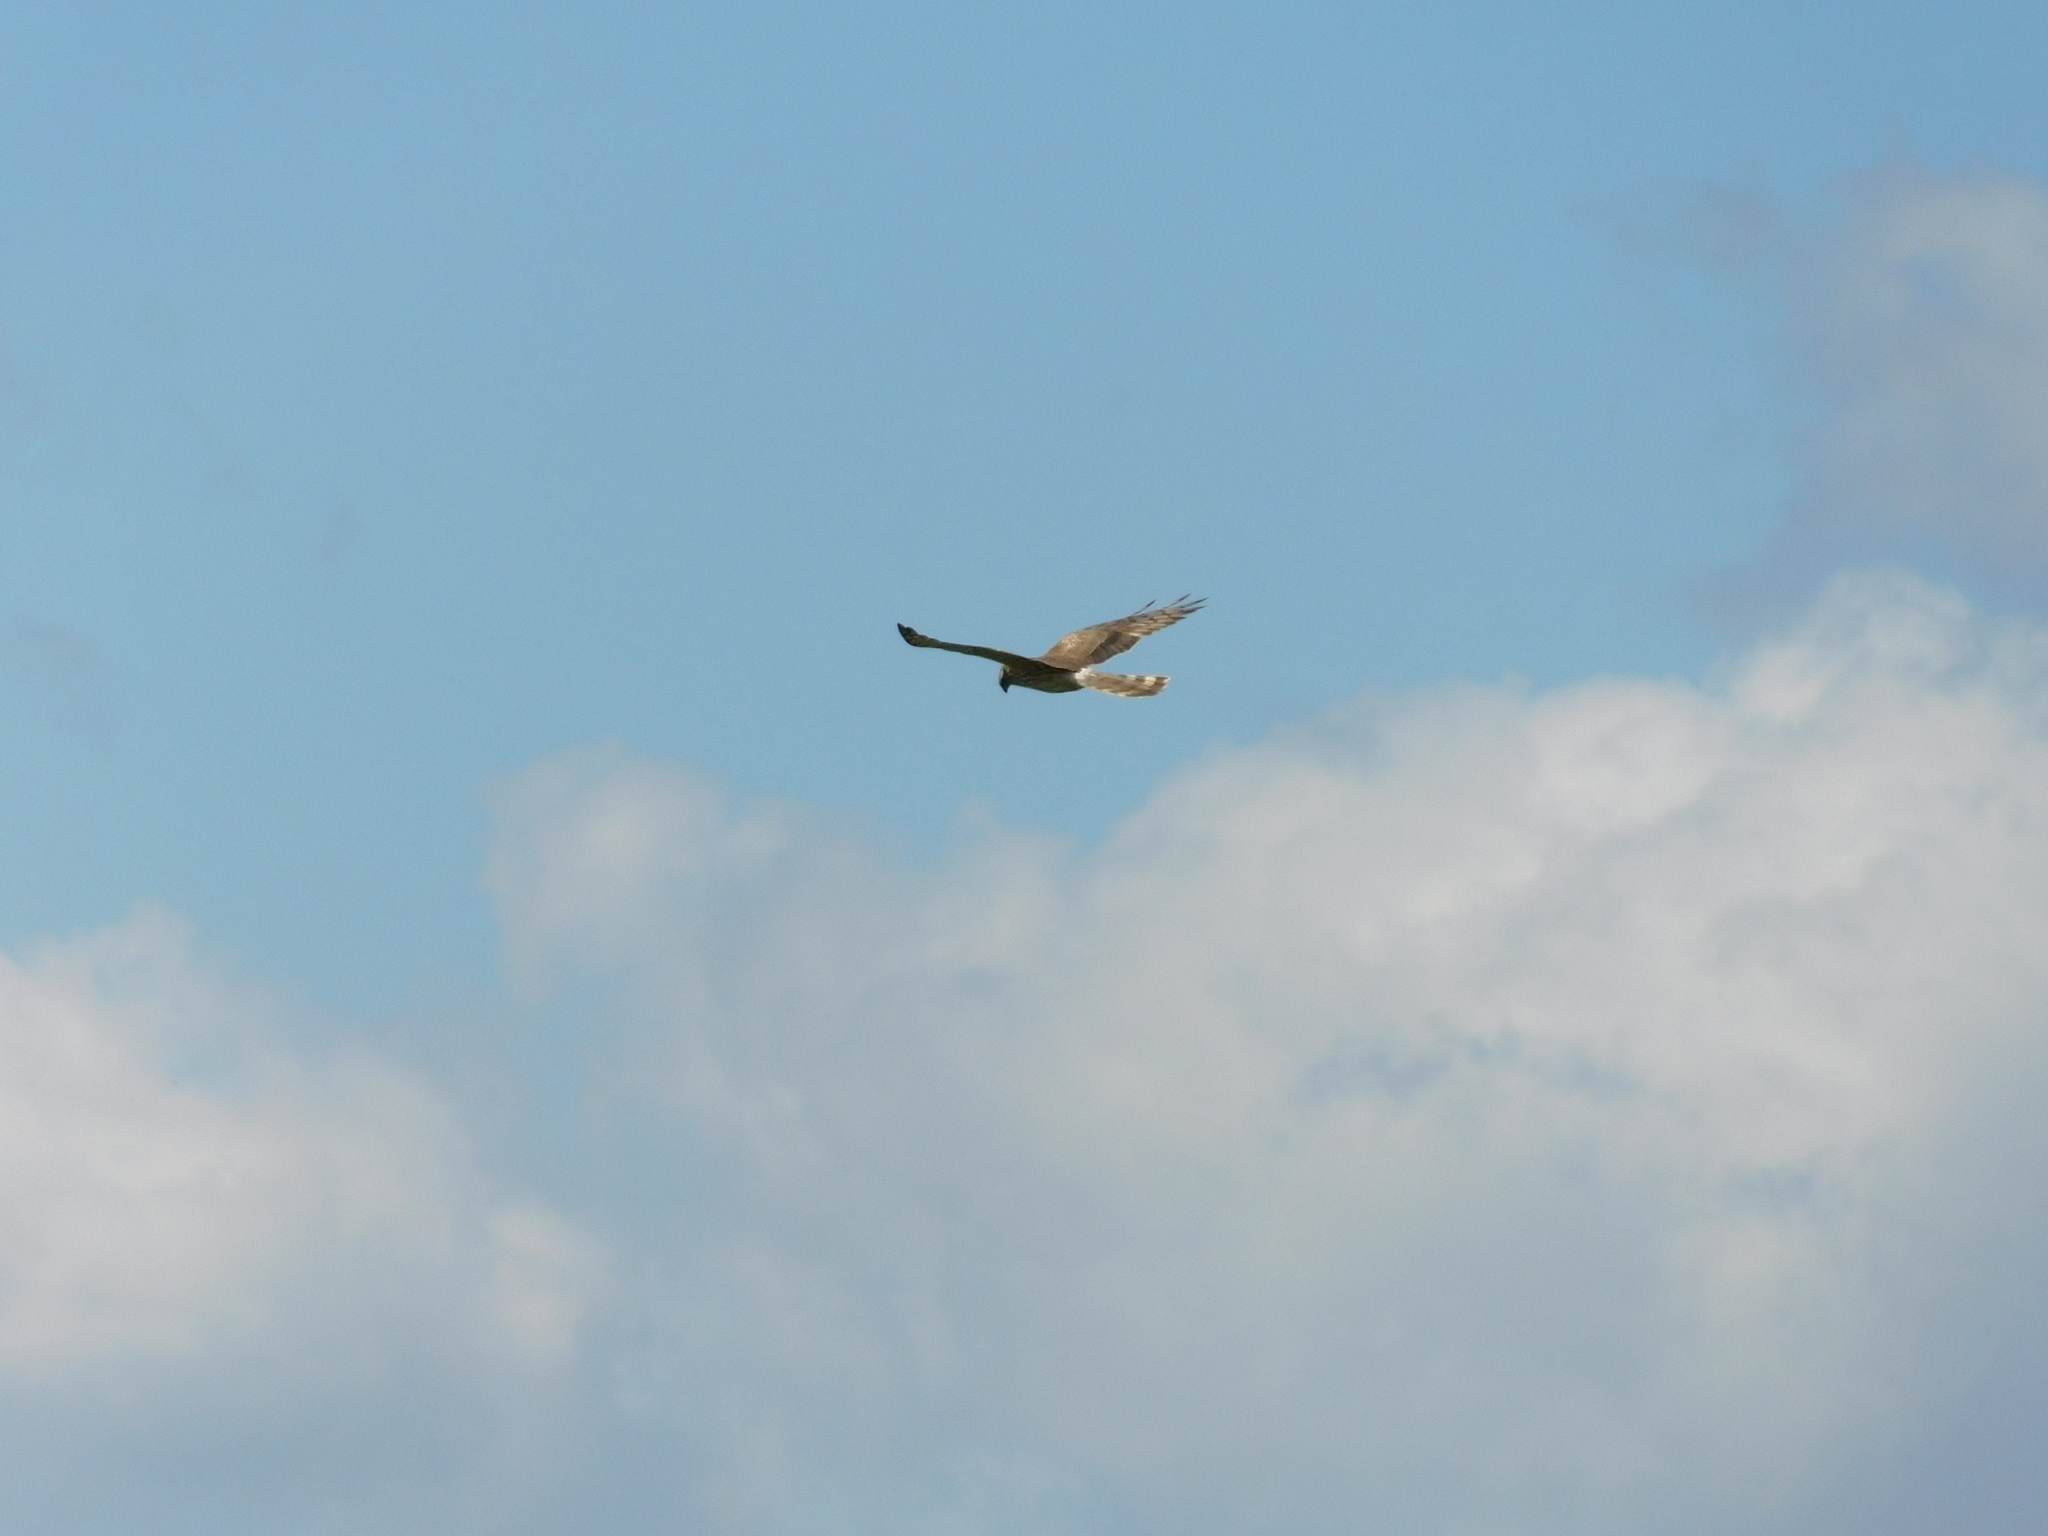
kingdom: Animalia
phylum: Chordata
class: Aves
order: Accipitriformes
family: Accipitridae
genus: Circus
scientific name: Circus pygargus
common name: Montagu's harrier
